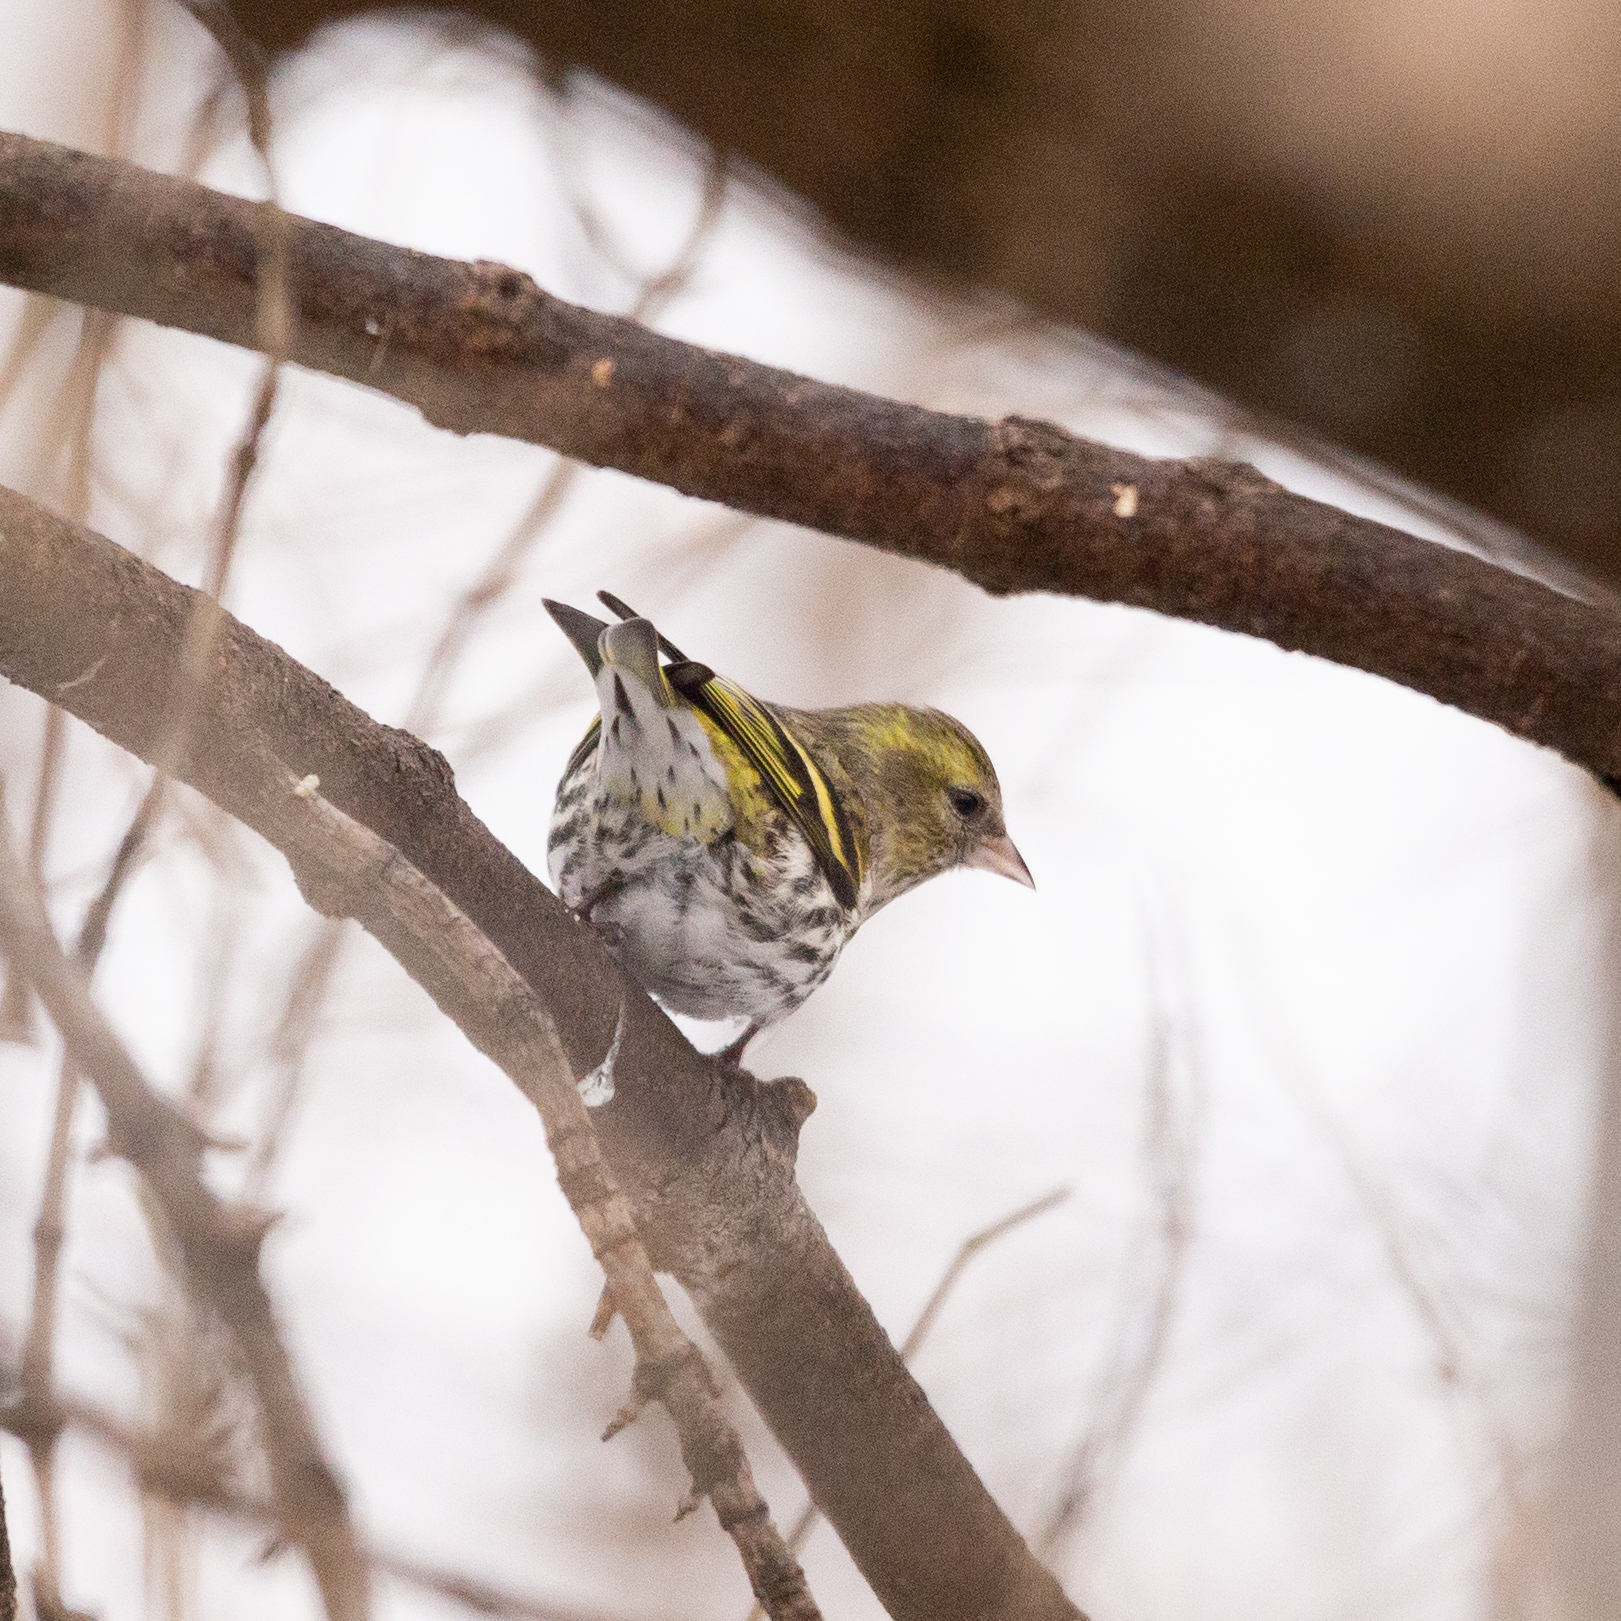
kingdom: Animalia
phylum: Chordata
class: Aves
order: Passeriformes
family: Fringillidae
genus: Spinus
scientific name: Spinus spinus
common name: Eurasian siskin
